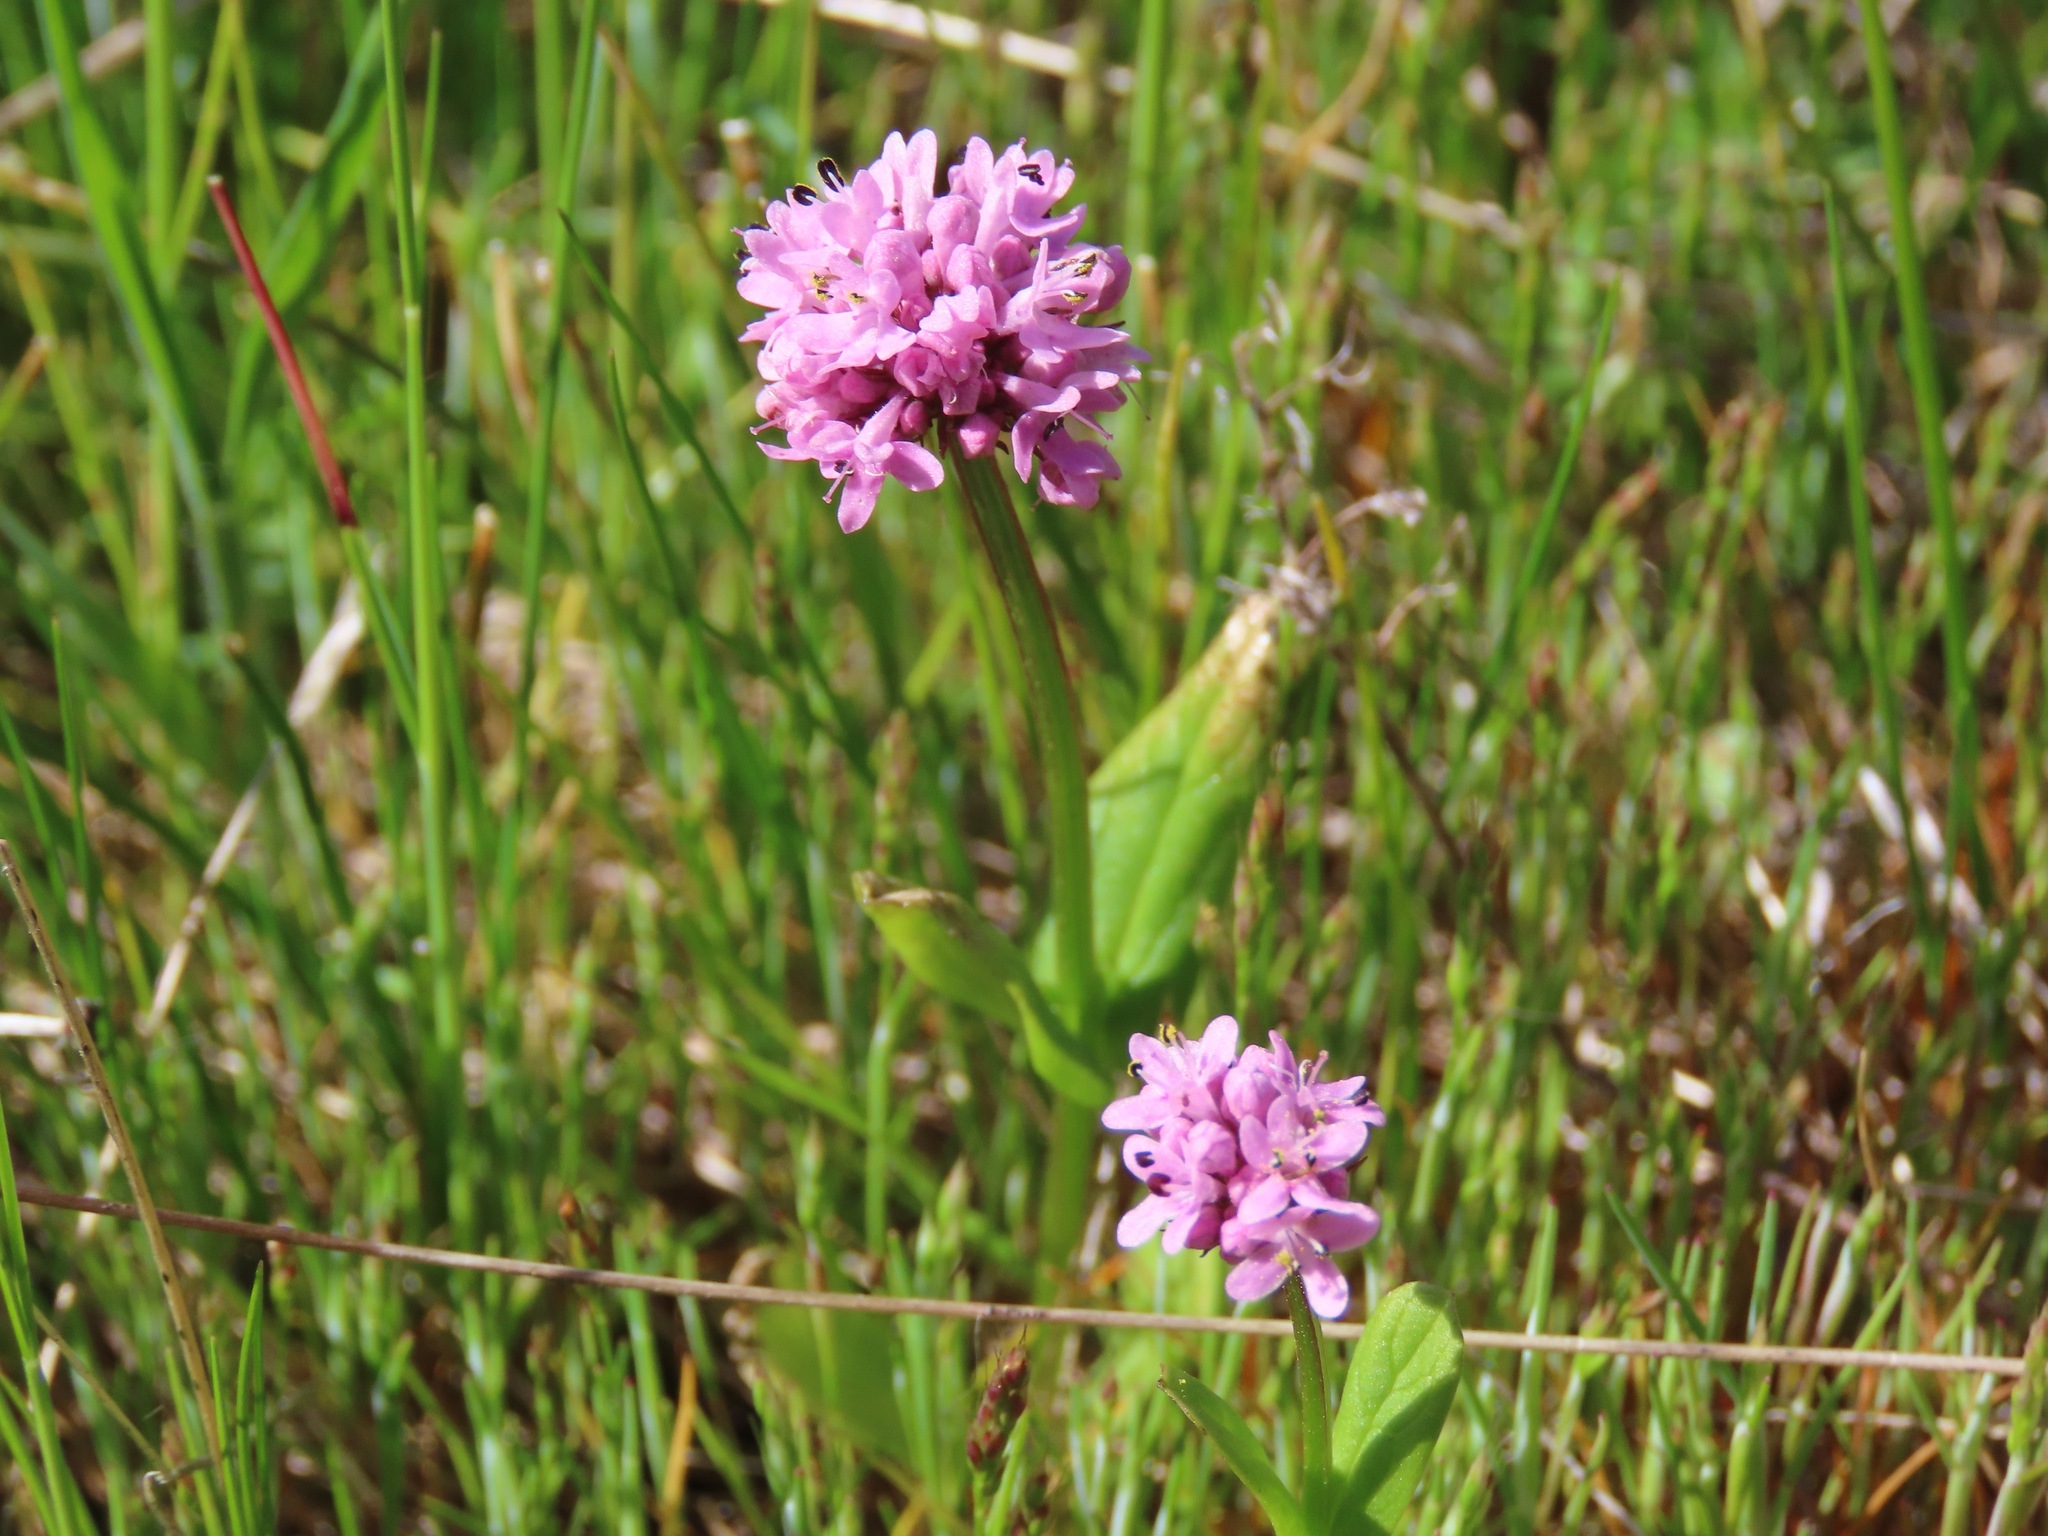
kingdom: Plantae
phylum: Tracheophyta
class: Magnoliopsida
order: Dipsacales
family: Caprifoliaceae
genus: Plectritis
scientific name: Plectritis congesta
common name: Pink plectritis
